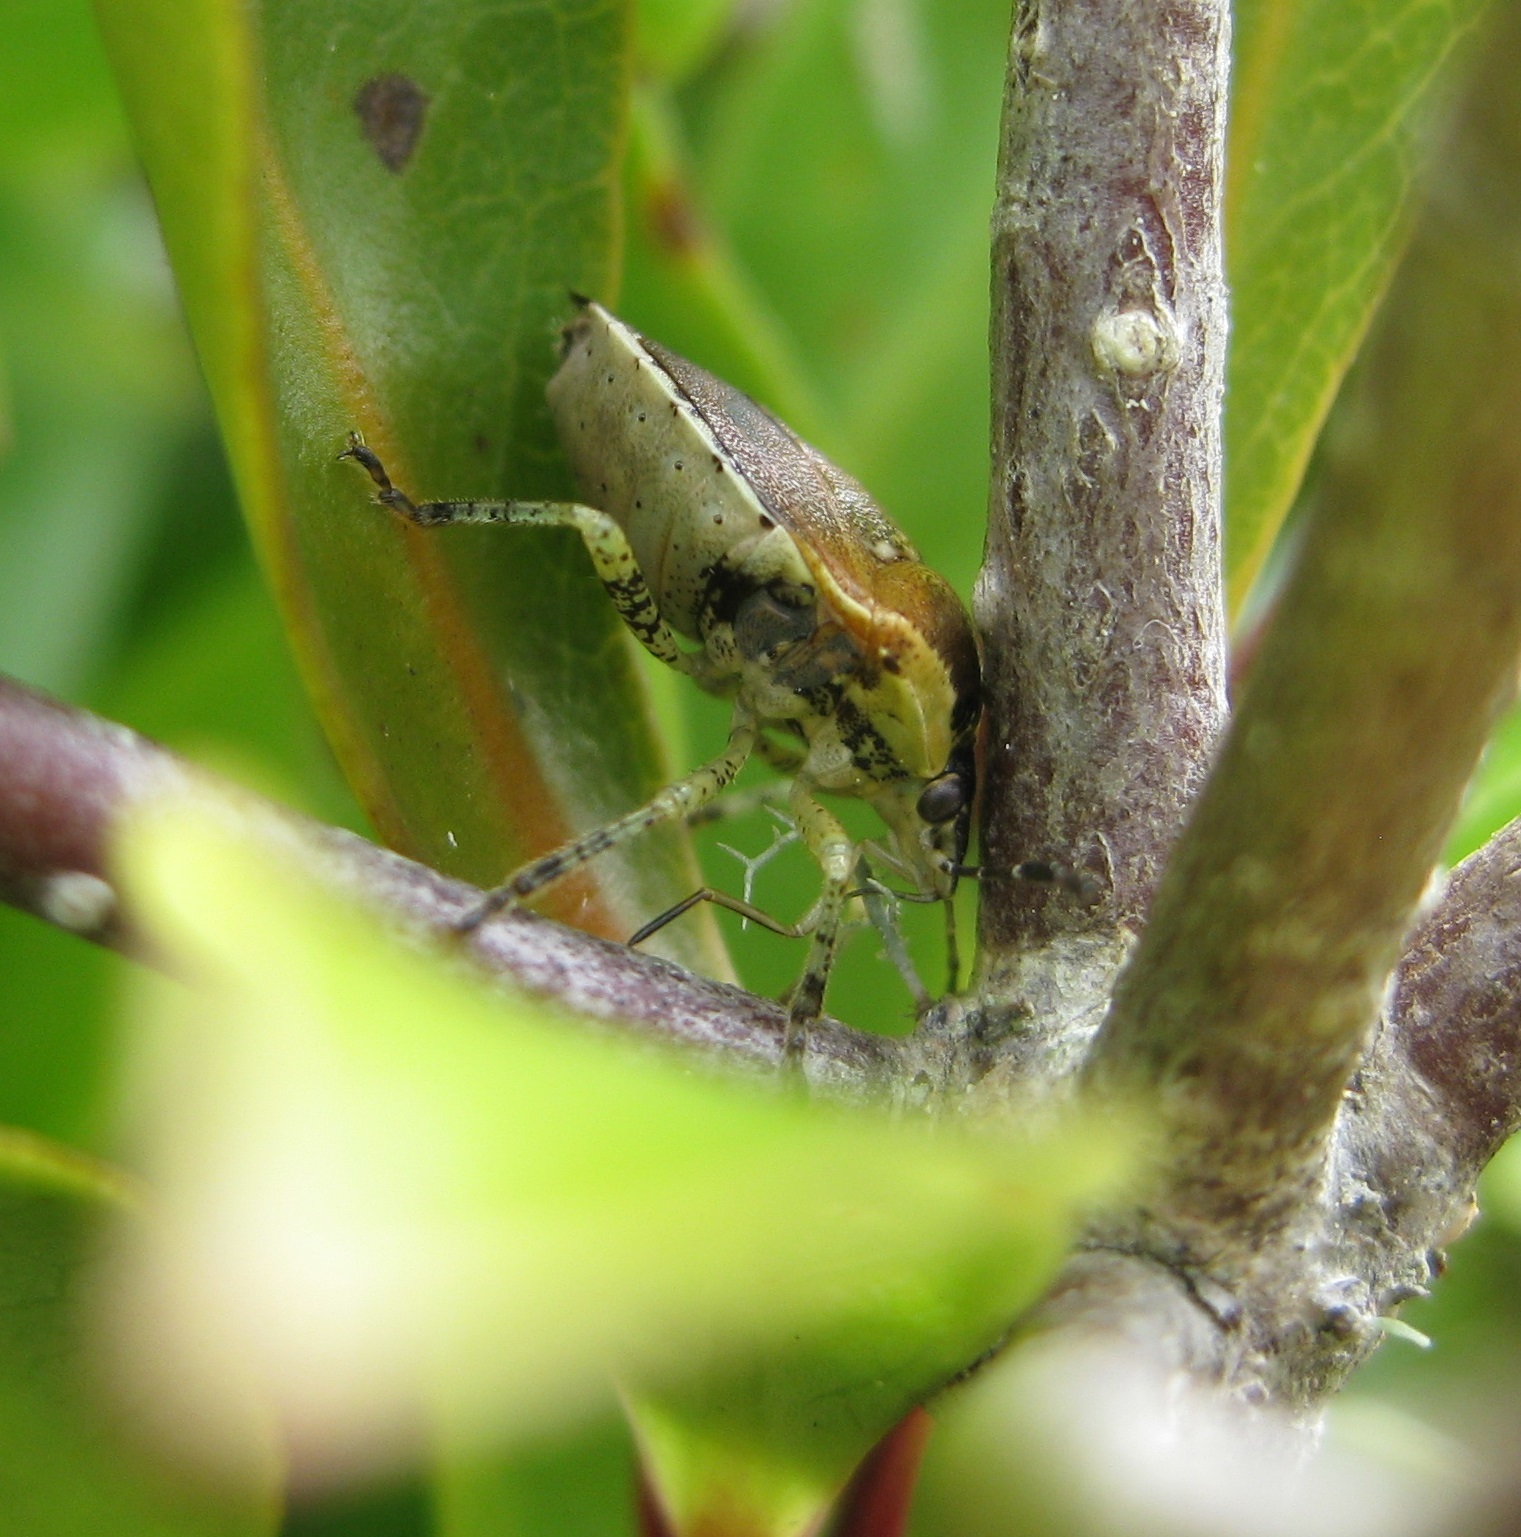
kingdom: Animalia
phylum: Arthropoda
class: Insecta
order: Hemiptera
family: Pentatomidae
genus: Monteithiella
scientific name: Monteithiella
